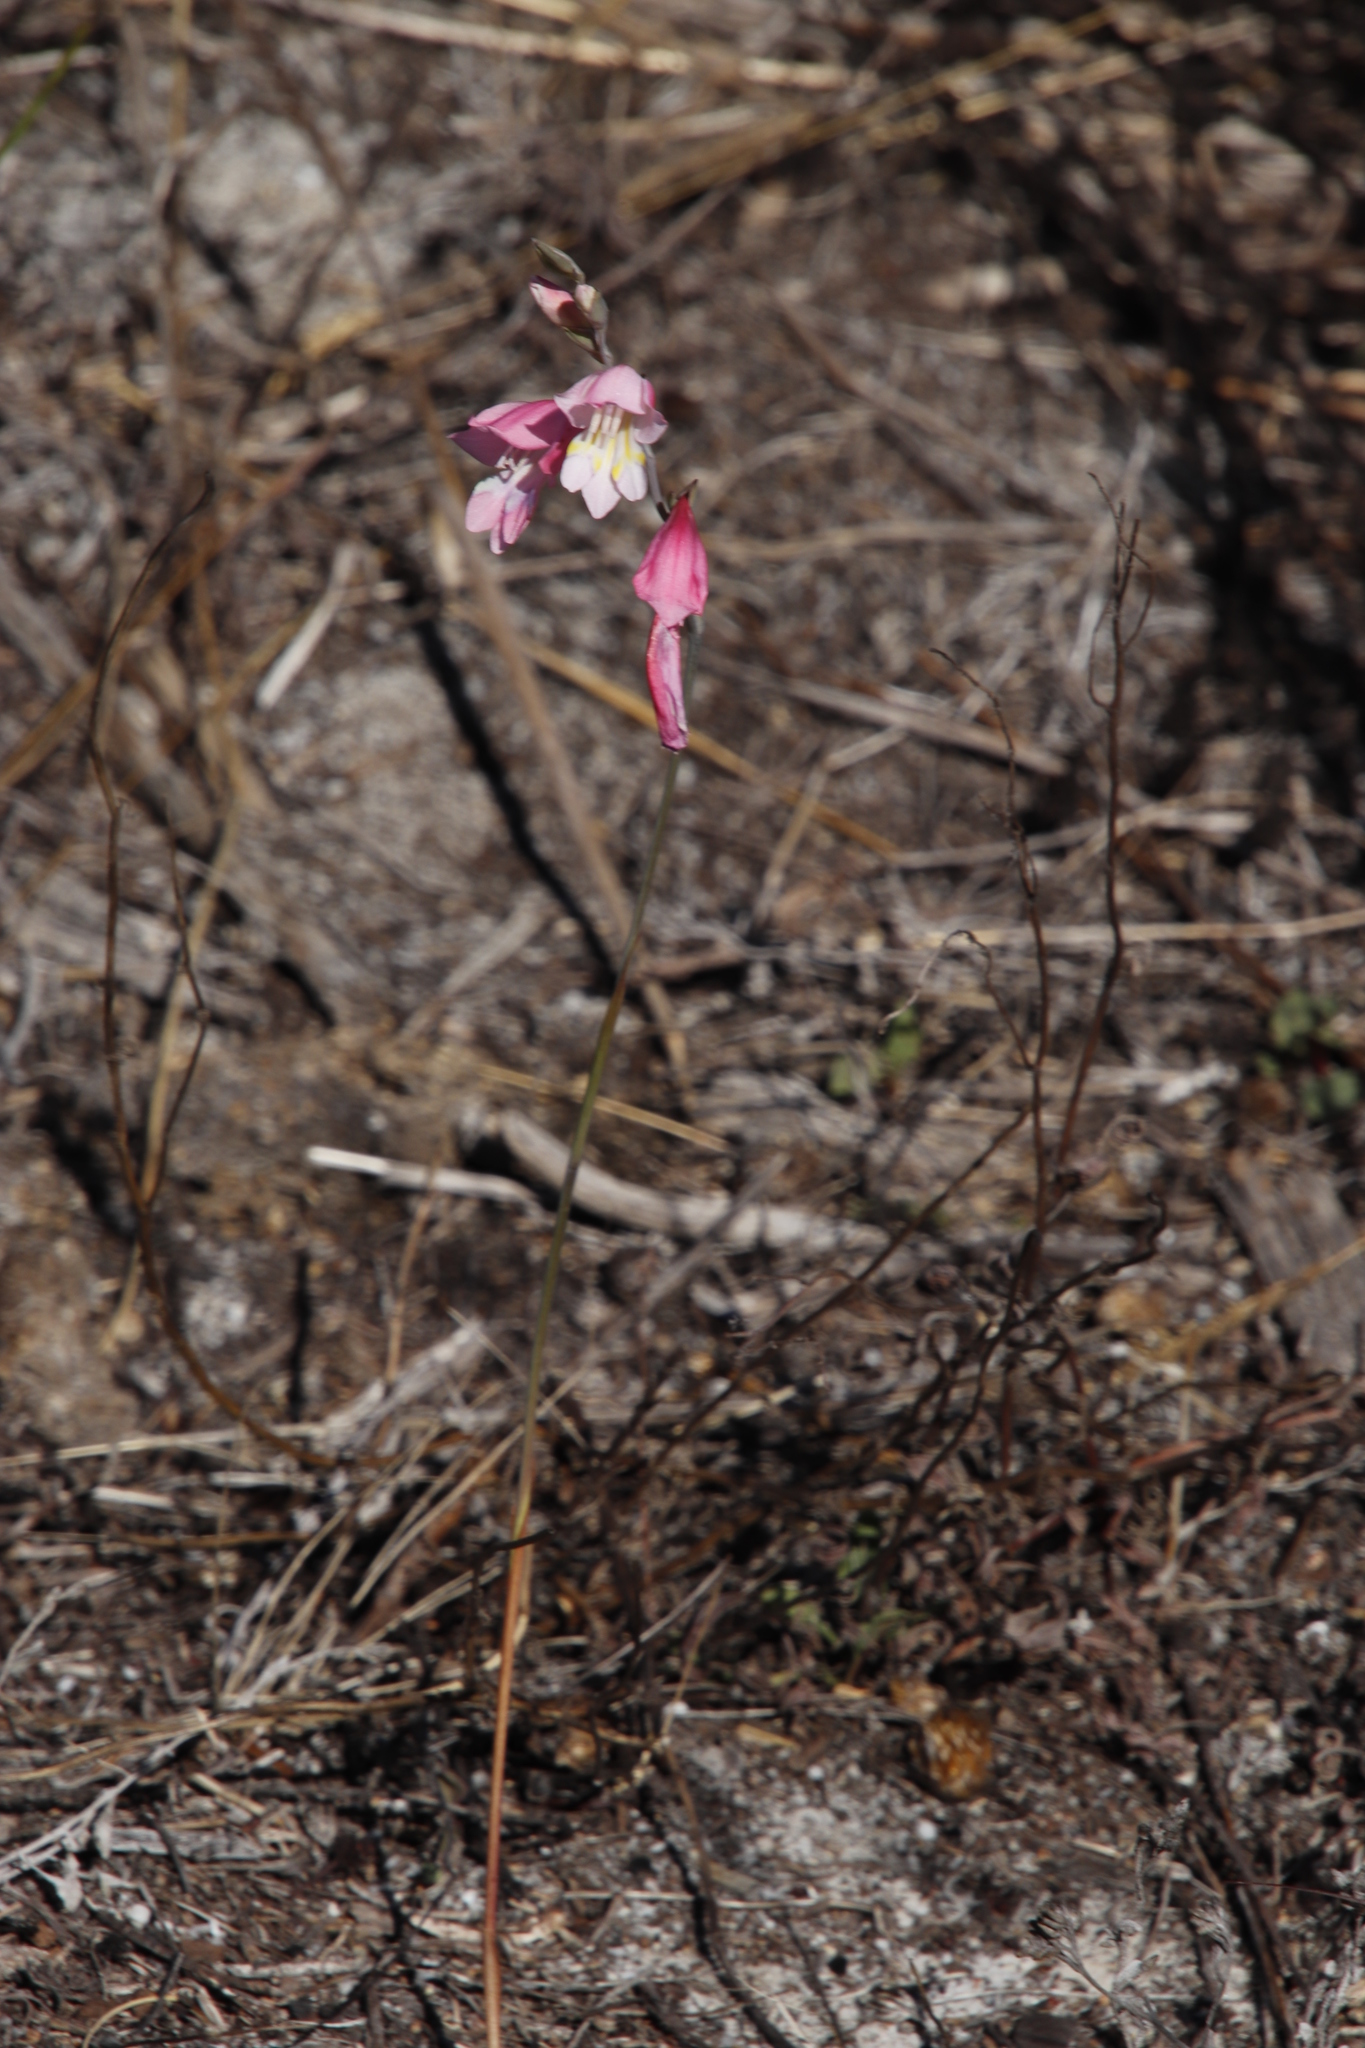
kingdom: Plantae
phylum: Tracheophyta
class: Liliopsida
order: Asparagales
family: Iridaceae
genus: Gladiolus
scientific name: Gladiolus brevifolius
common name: March pypie
